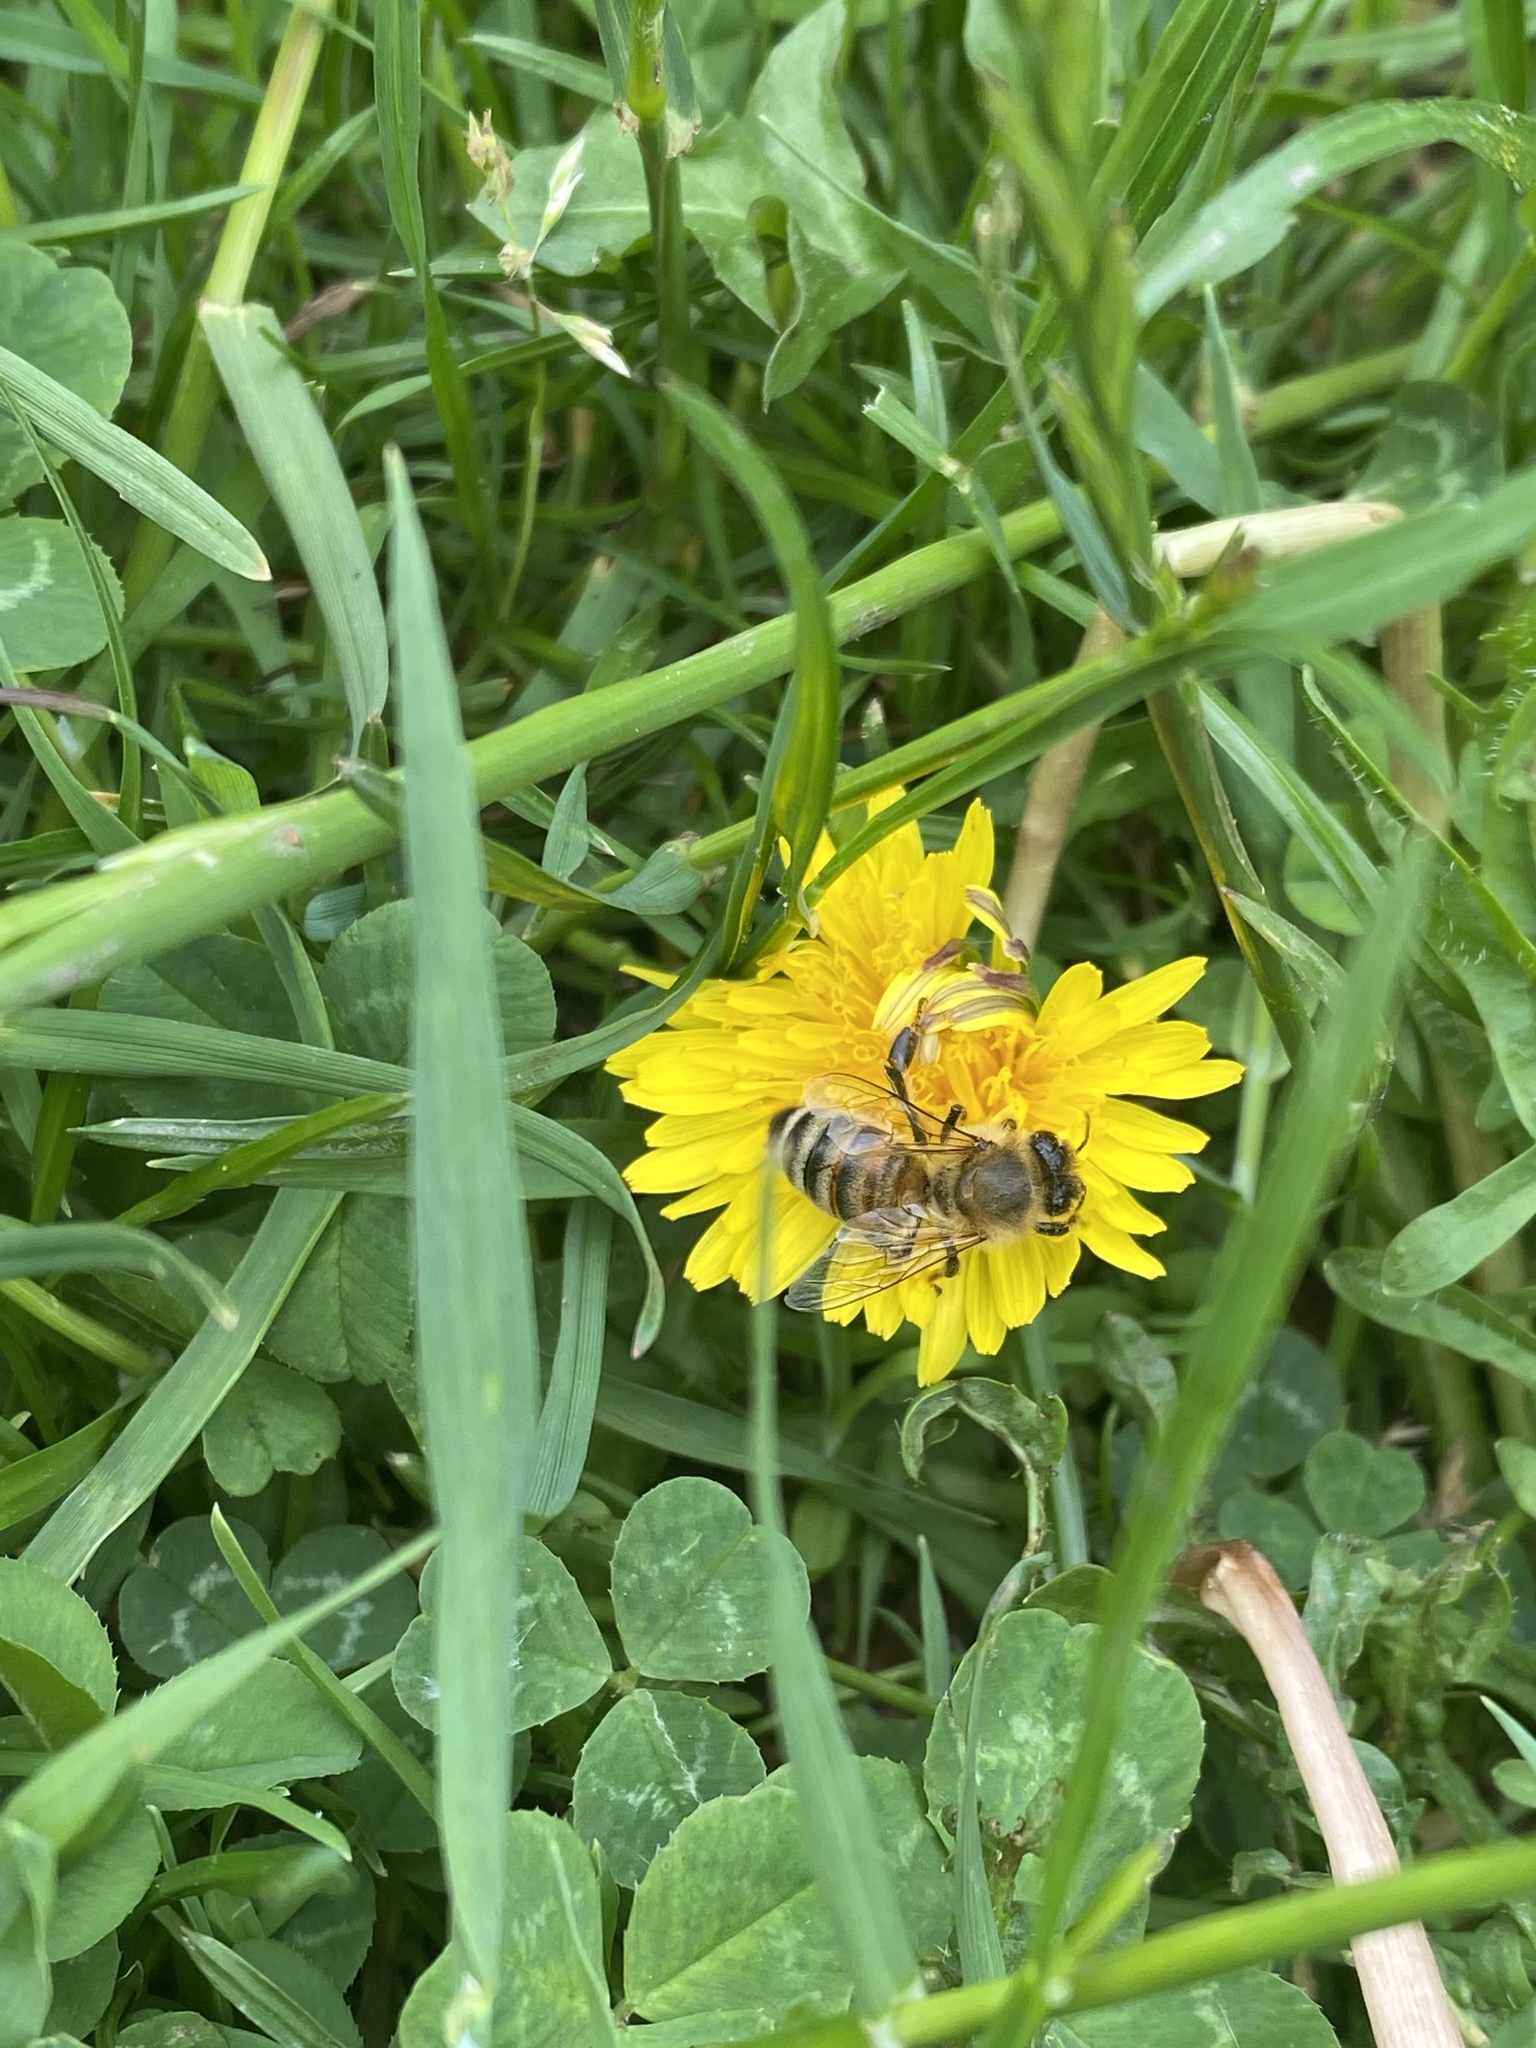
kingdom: Animalia
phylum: Arthropoda
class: Insecta
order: Hymenoptera
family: Apidae
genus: Apis
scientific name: Apis mellifera
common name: Honey bee
